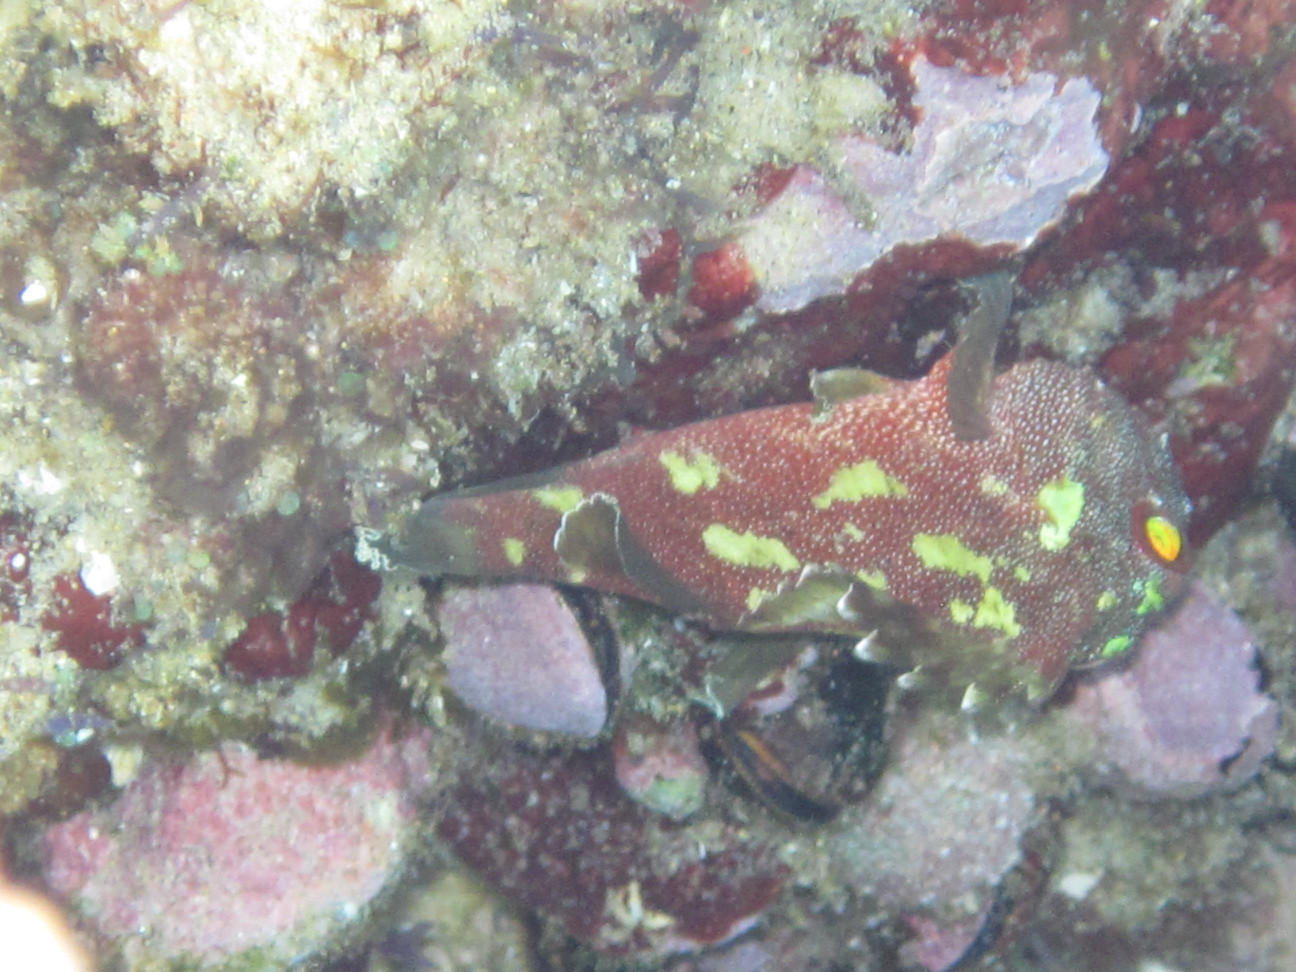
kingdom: Animalia
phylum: Chordata
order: Scorpaeniformes
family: Scorpaenidae
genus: Sebastapistes
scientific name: Sebastapistes cyanostigma
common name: Yellowspotted scorpionfish
